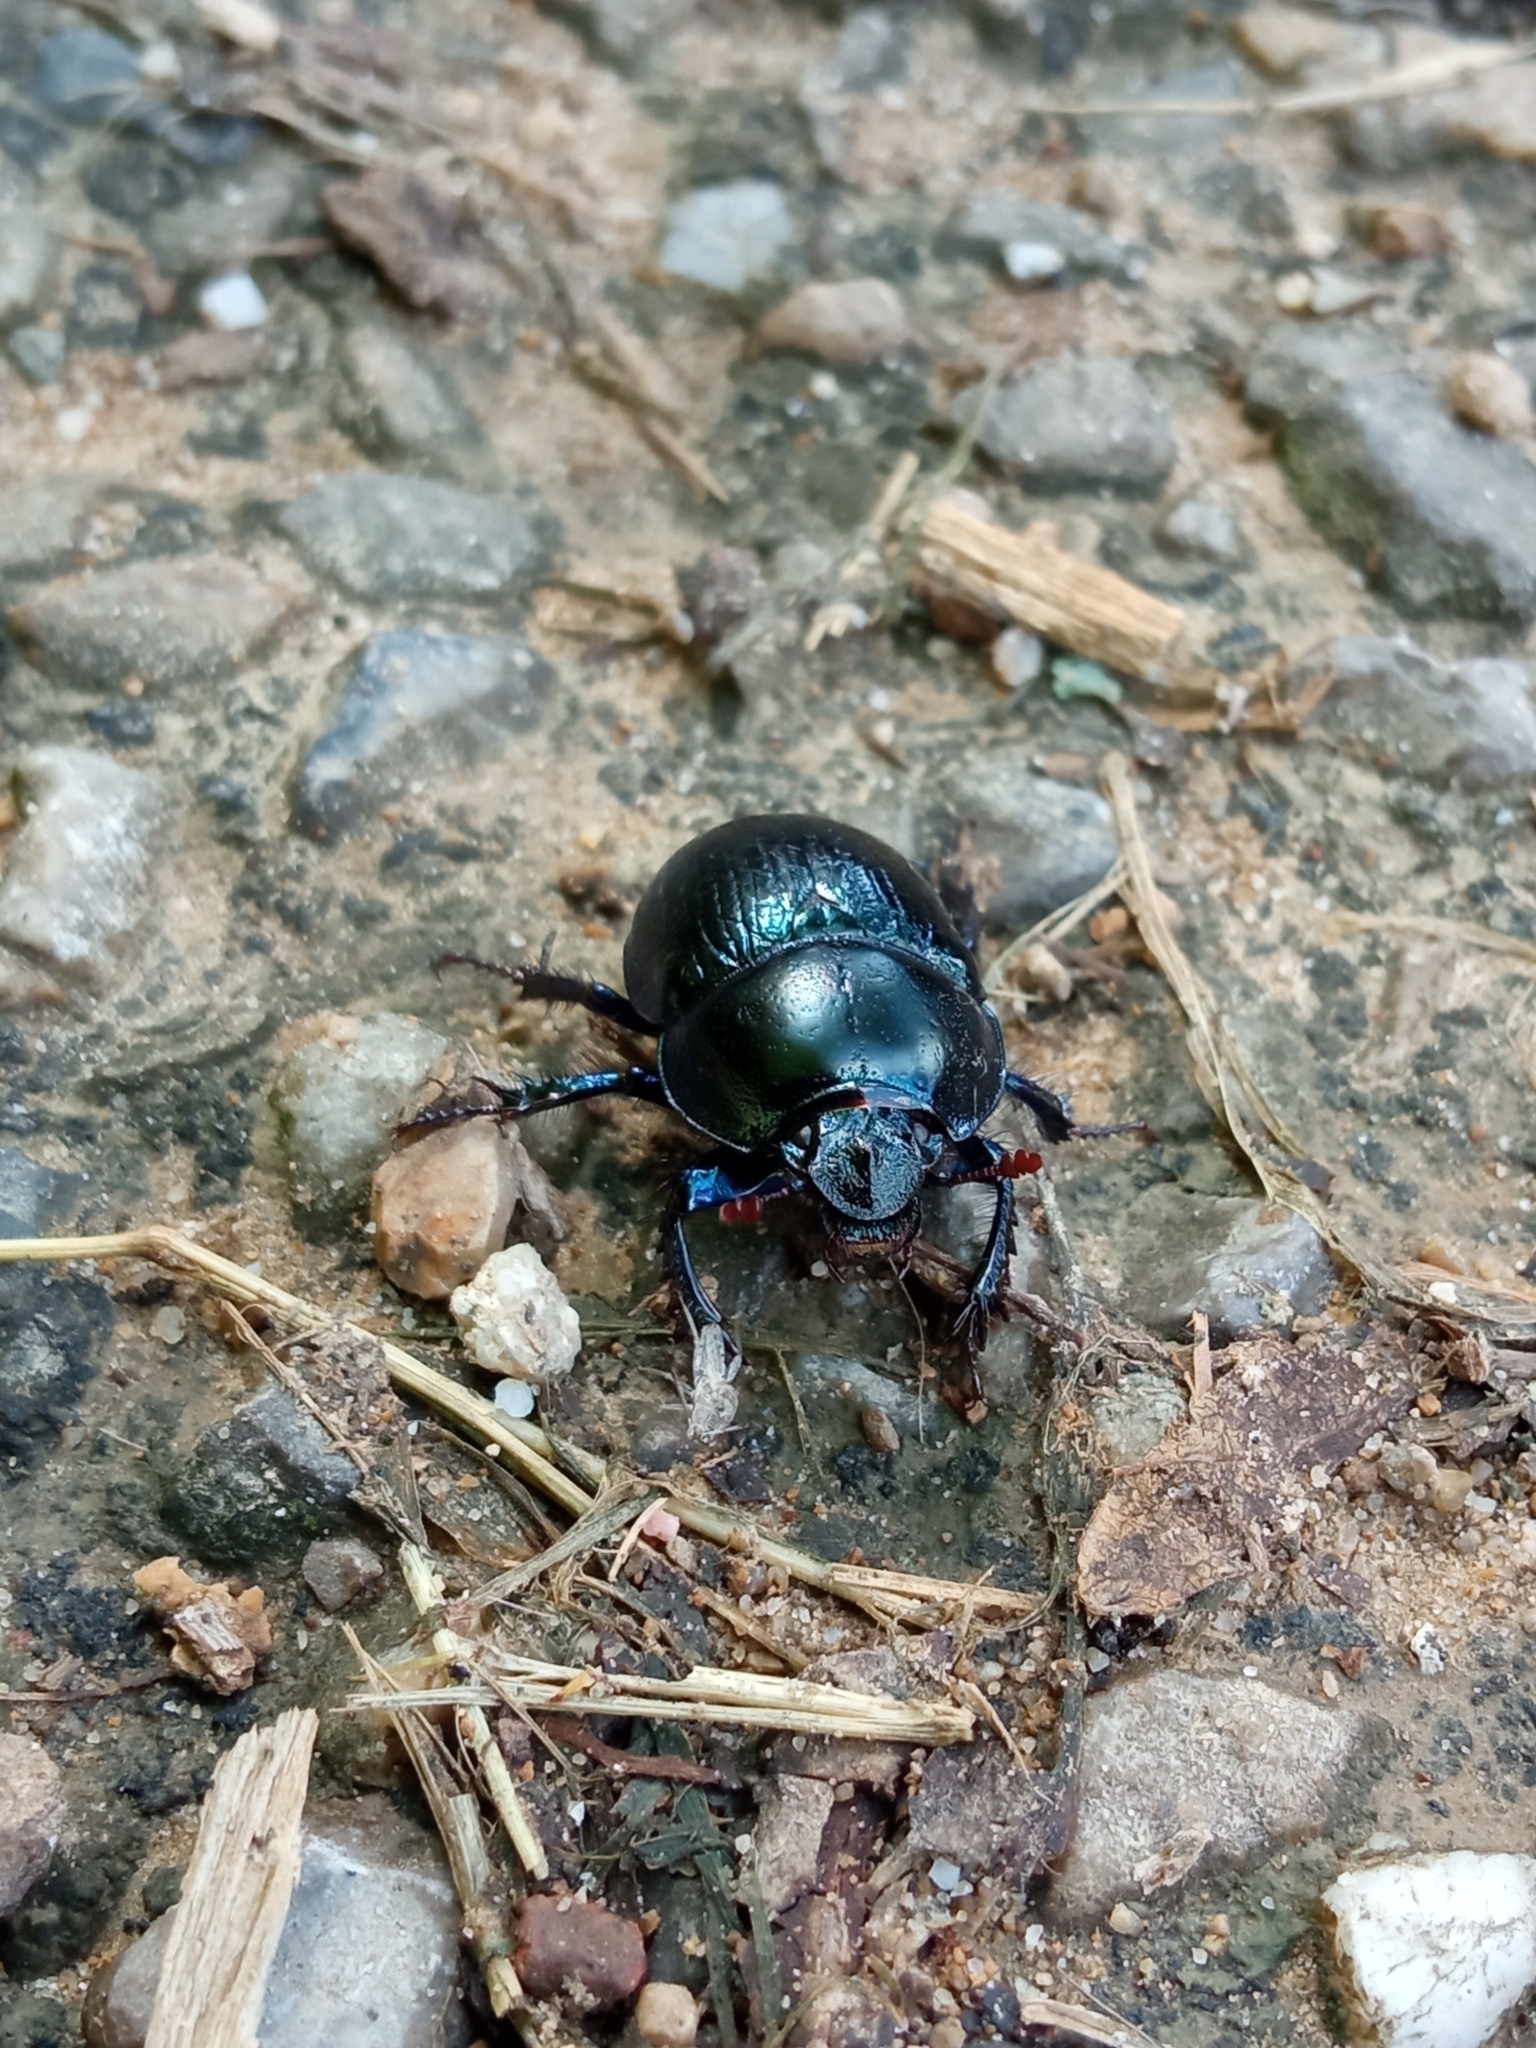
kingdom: Animalia
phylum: Arthropoda
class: Insecta
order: Coleoptera
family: Geotrupidae
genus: Anoplotrupes
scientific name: Anoplotrupes stercorosus
